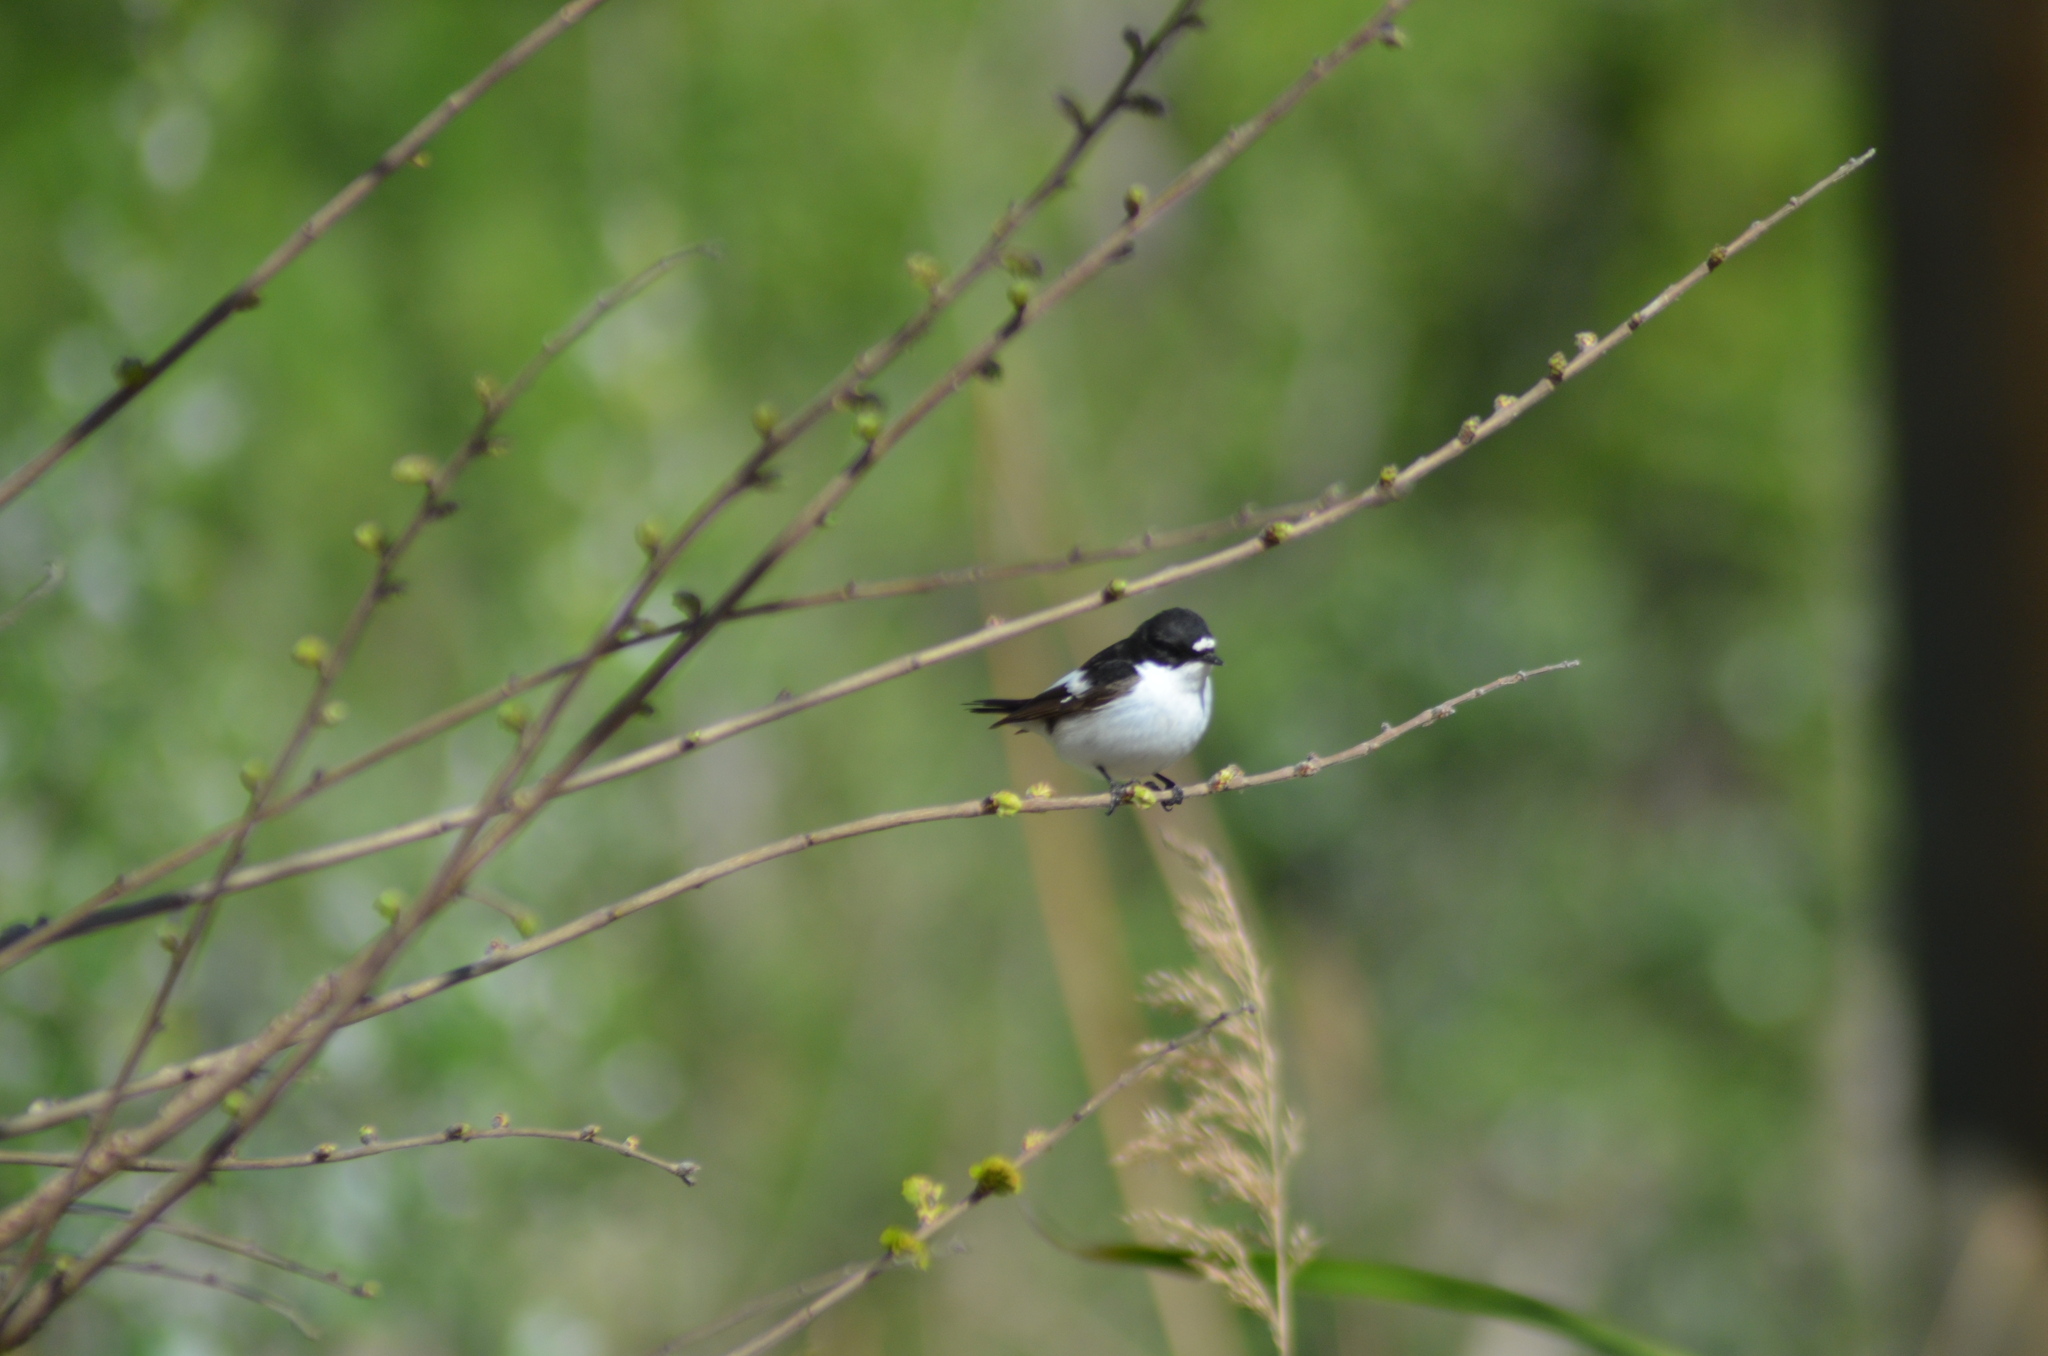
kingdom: Animalia
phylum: Chordata
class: Aves
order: Passeriformes
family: Muscicapidae
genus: Ficedula
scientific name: Ficedula hypoleuca
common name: European pied flycatcher
